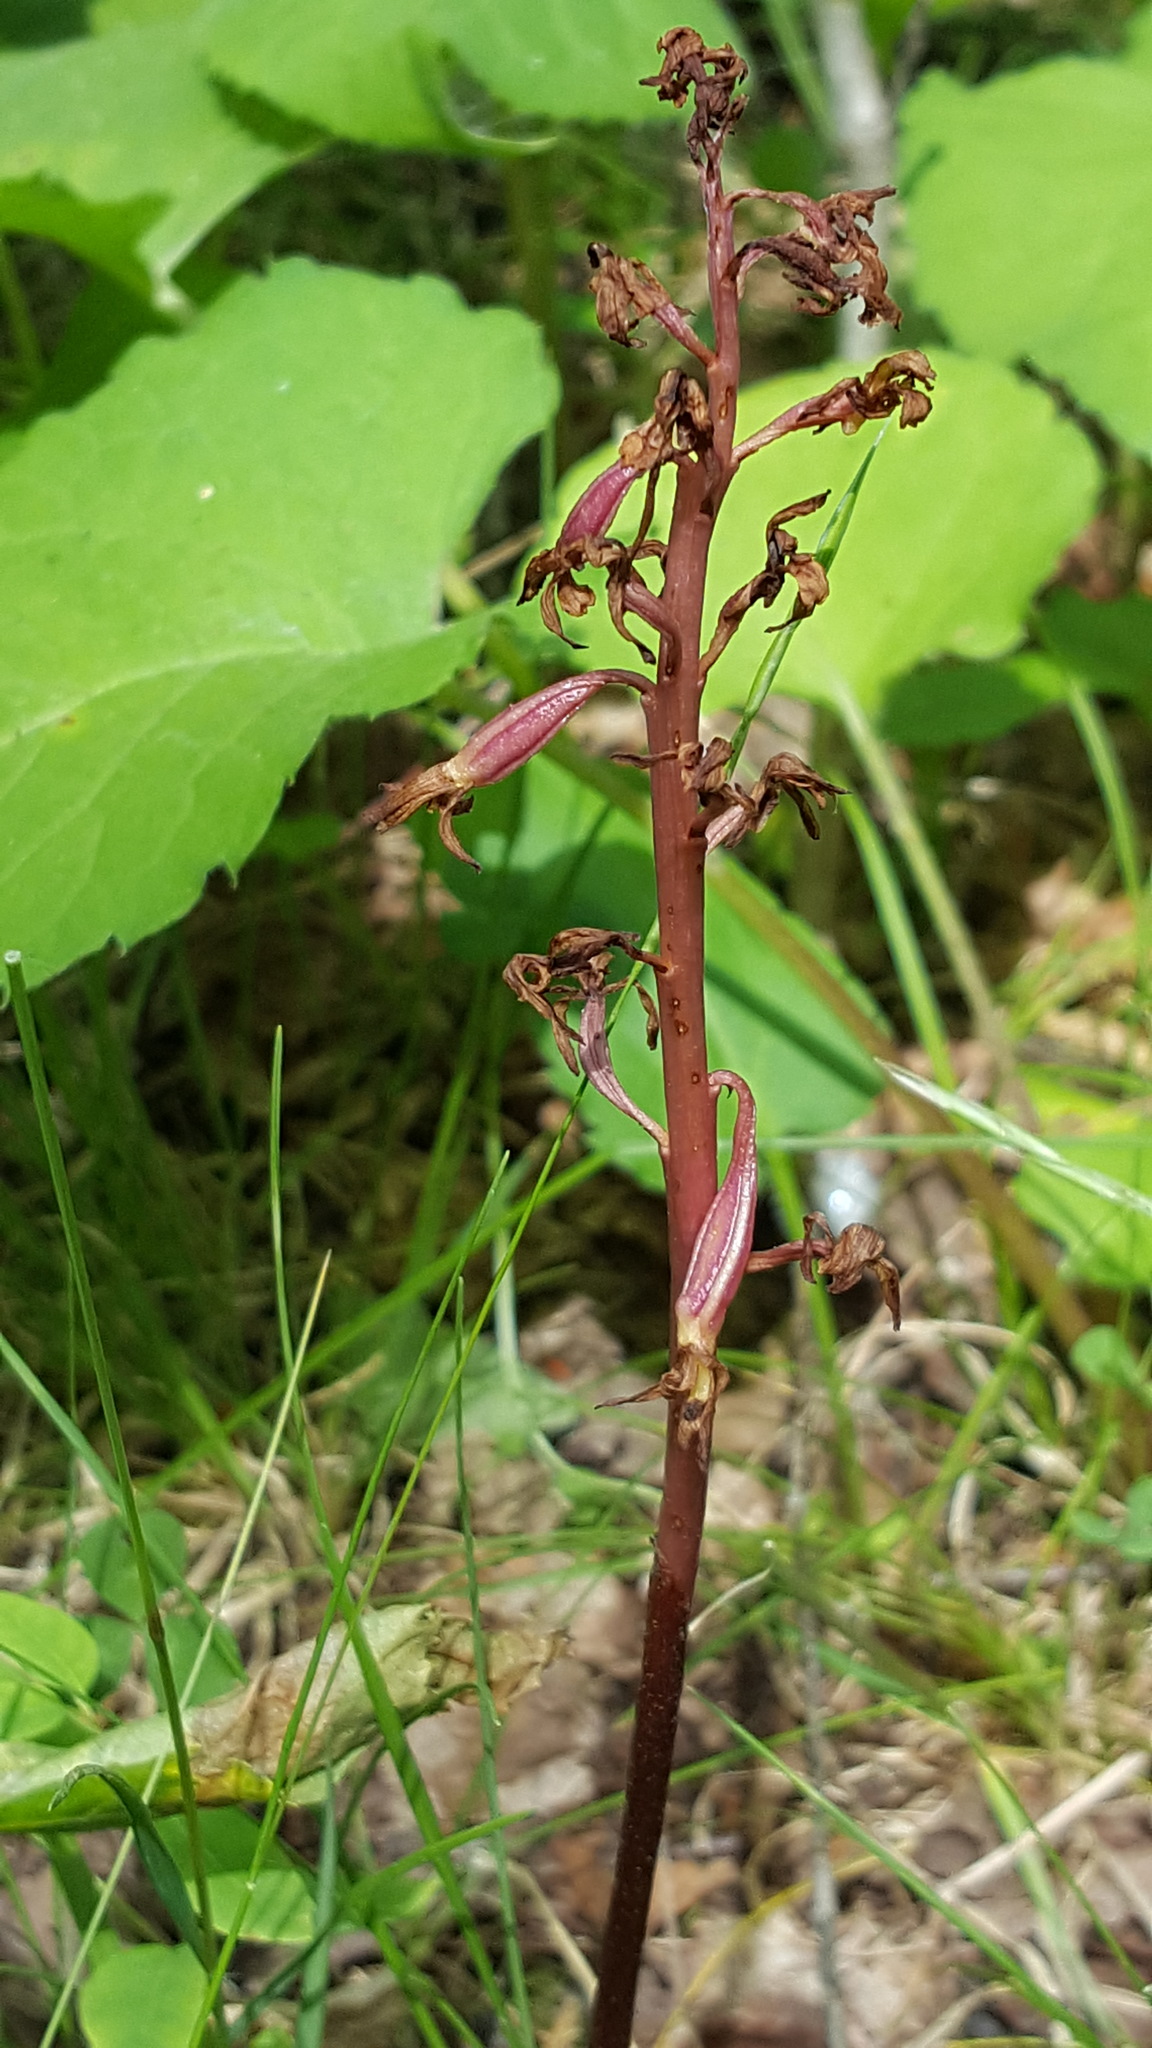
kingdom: Plantae
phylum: Tracheophyta
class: Liliopsida
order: Asparagales
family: Orchidaceae
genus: Corallorhiza
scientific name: Corallorhiza maculata
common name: Spotted coralroot
